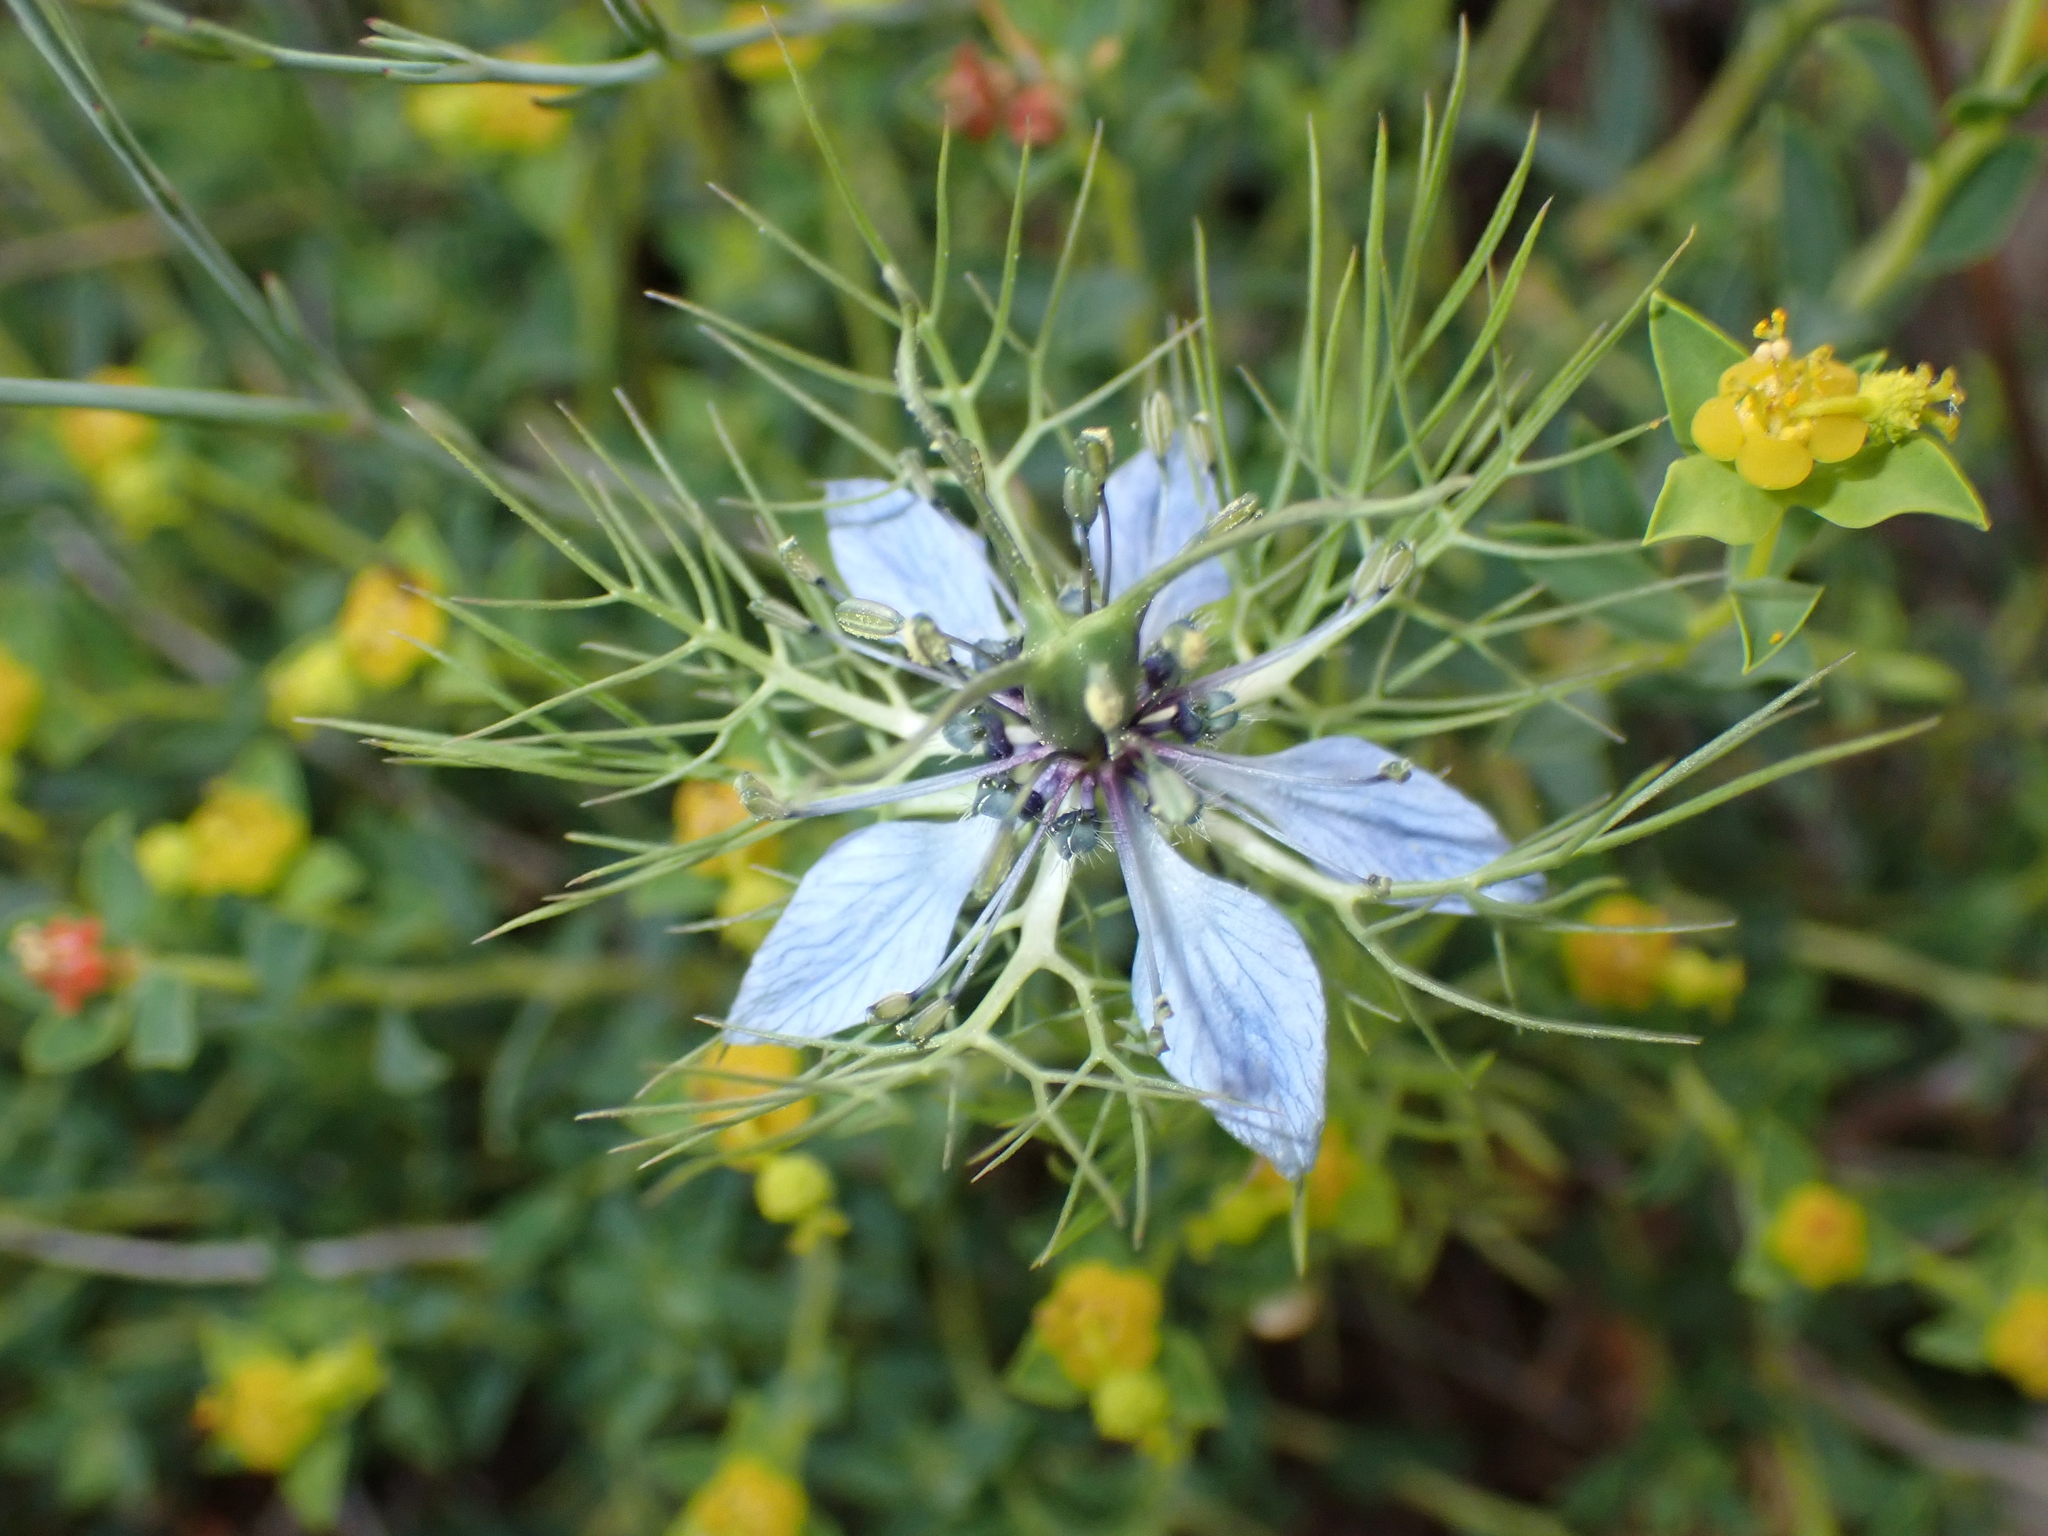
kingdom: Plantae
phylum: Tracheophyta
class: Magnoliopsida
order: Ranunculales
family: Ranunculaceae
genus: Nigella
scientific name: Nigella damascena
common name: Love-in-a-mist
